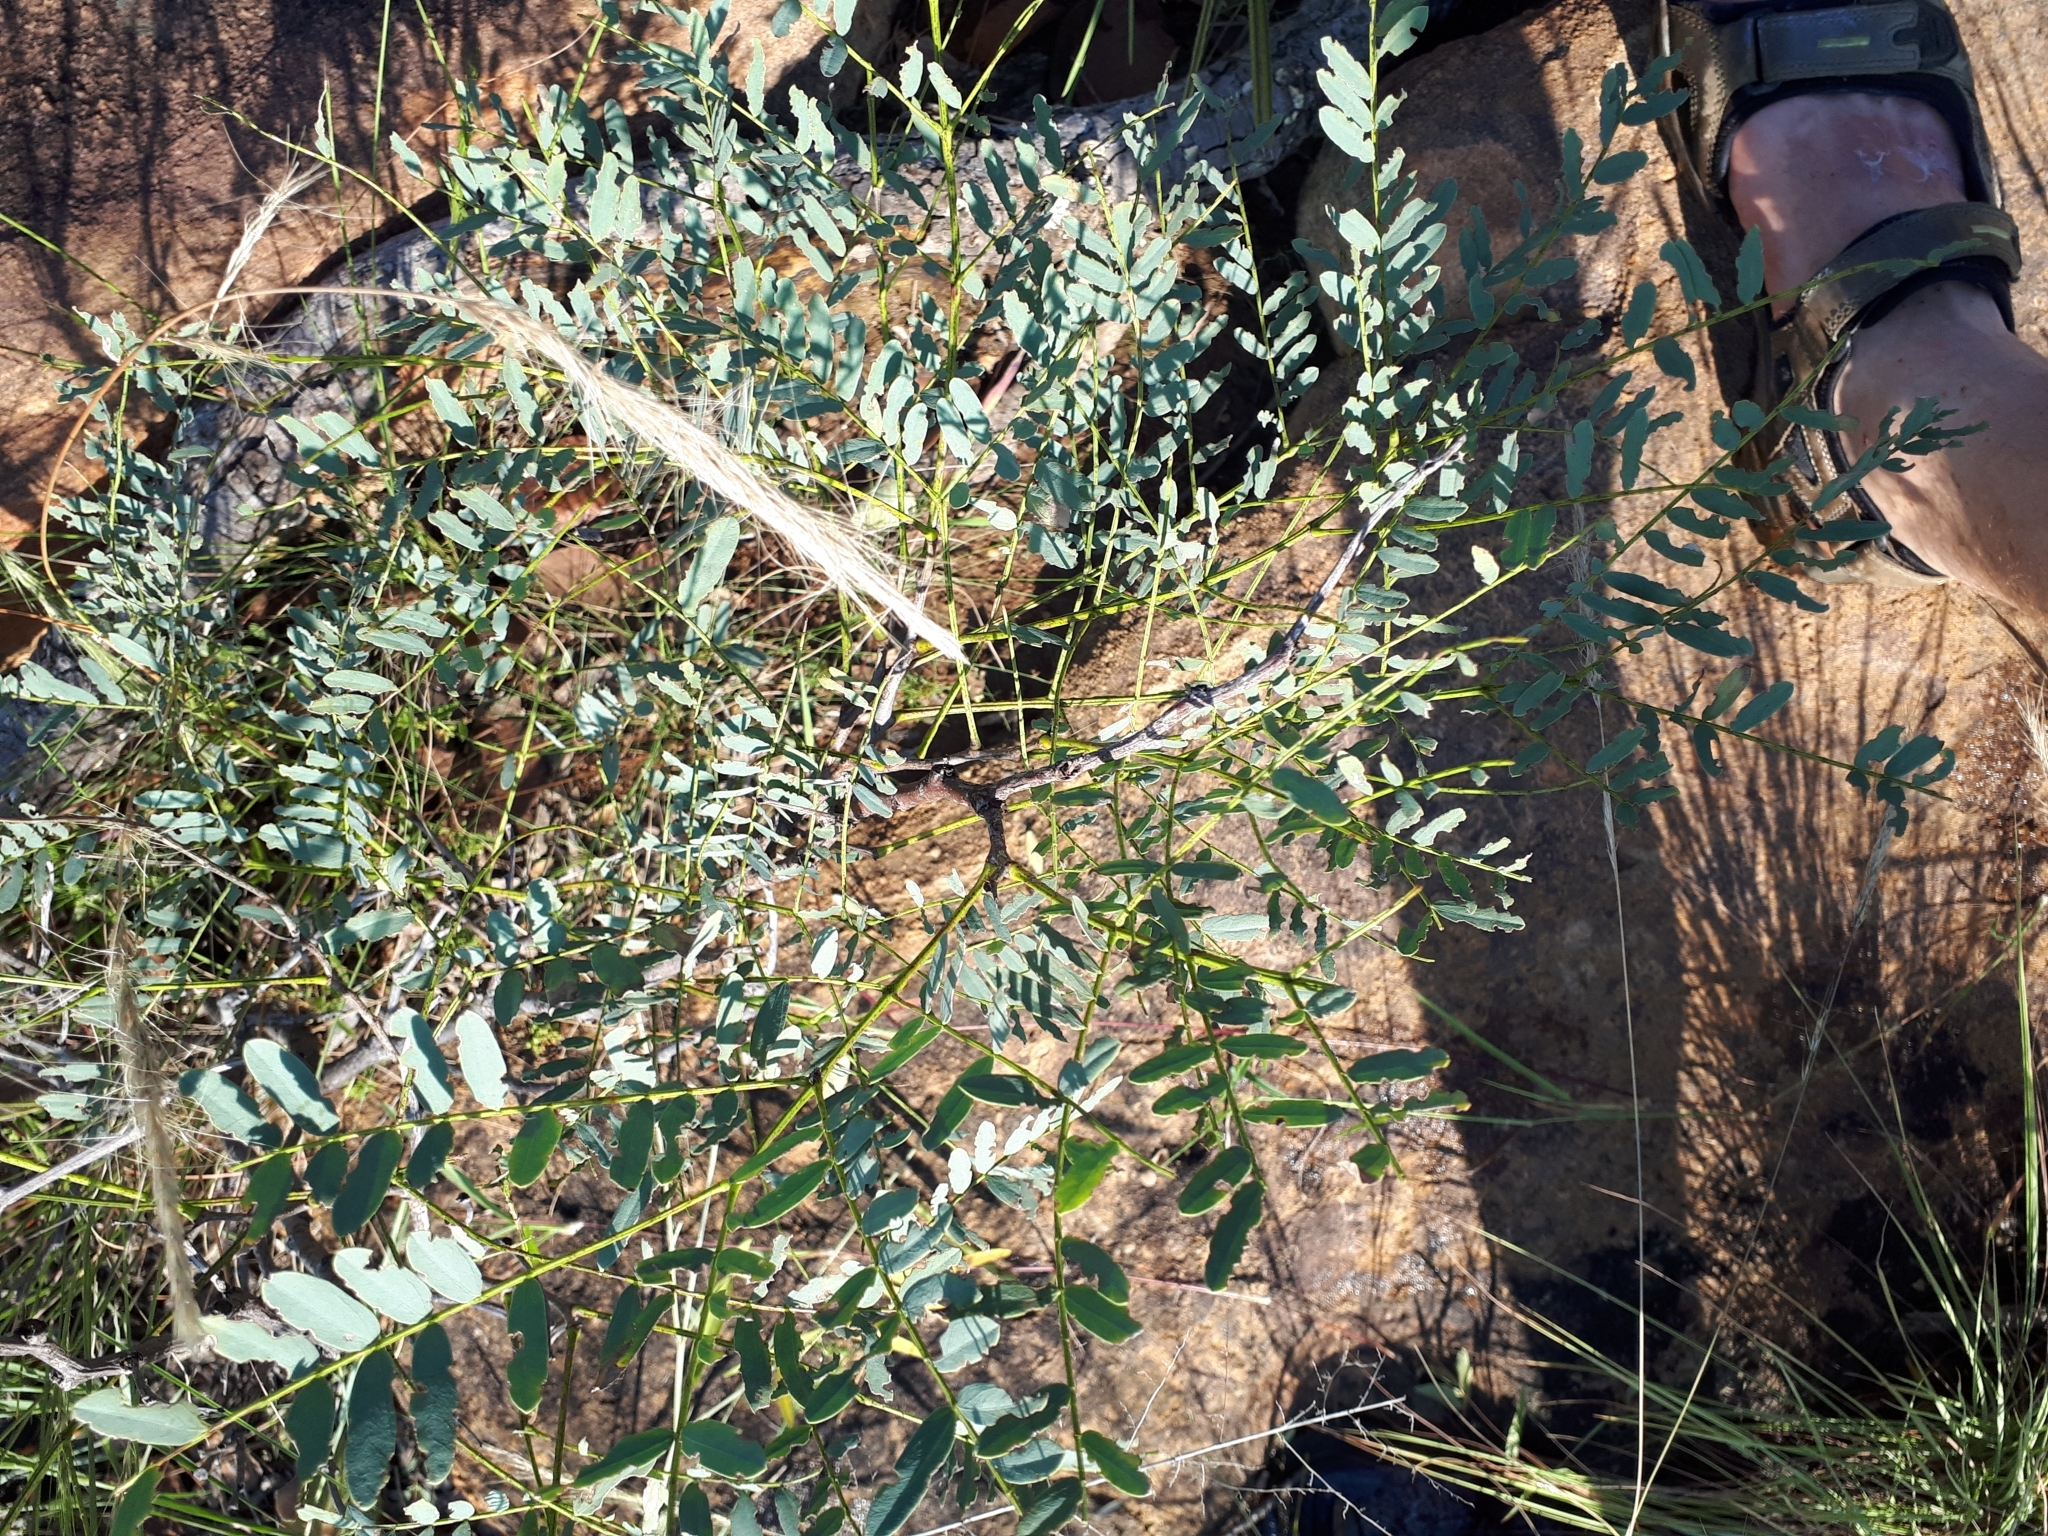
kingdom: Plantae
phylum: Tracheophyta
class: Magnoliopsida
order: Fabales
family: Fabaceae
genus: Elephantorrhiza
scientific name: Elephantorrhiza burkei
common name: Broad-pod elephant-root
